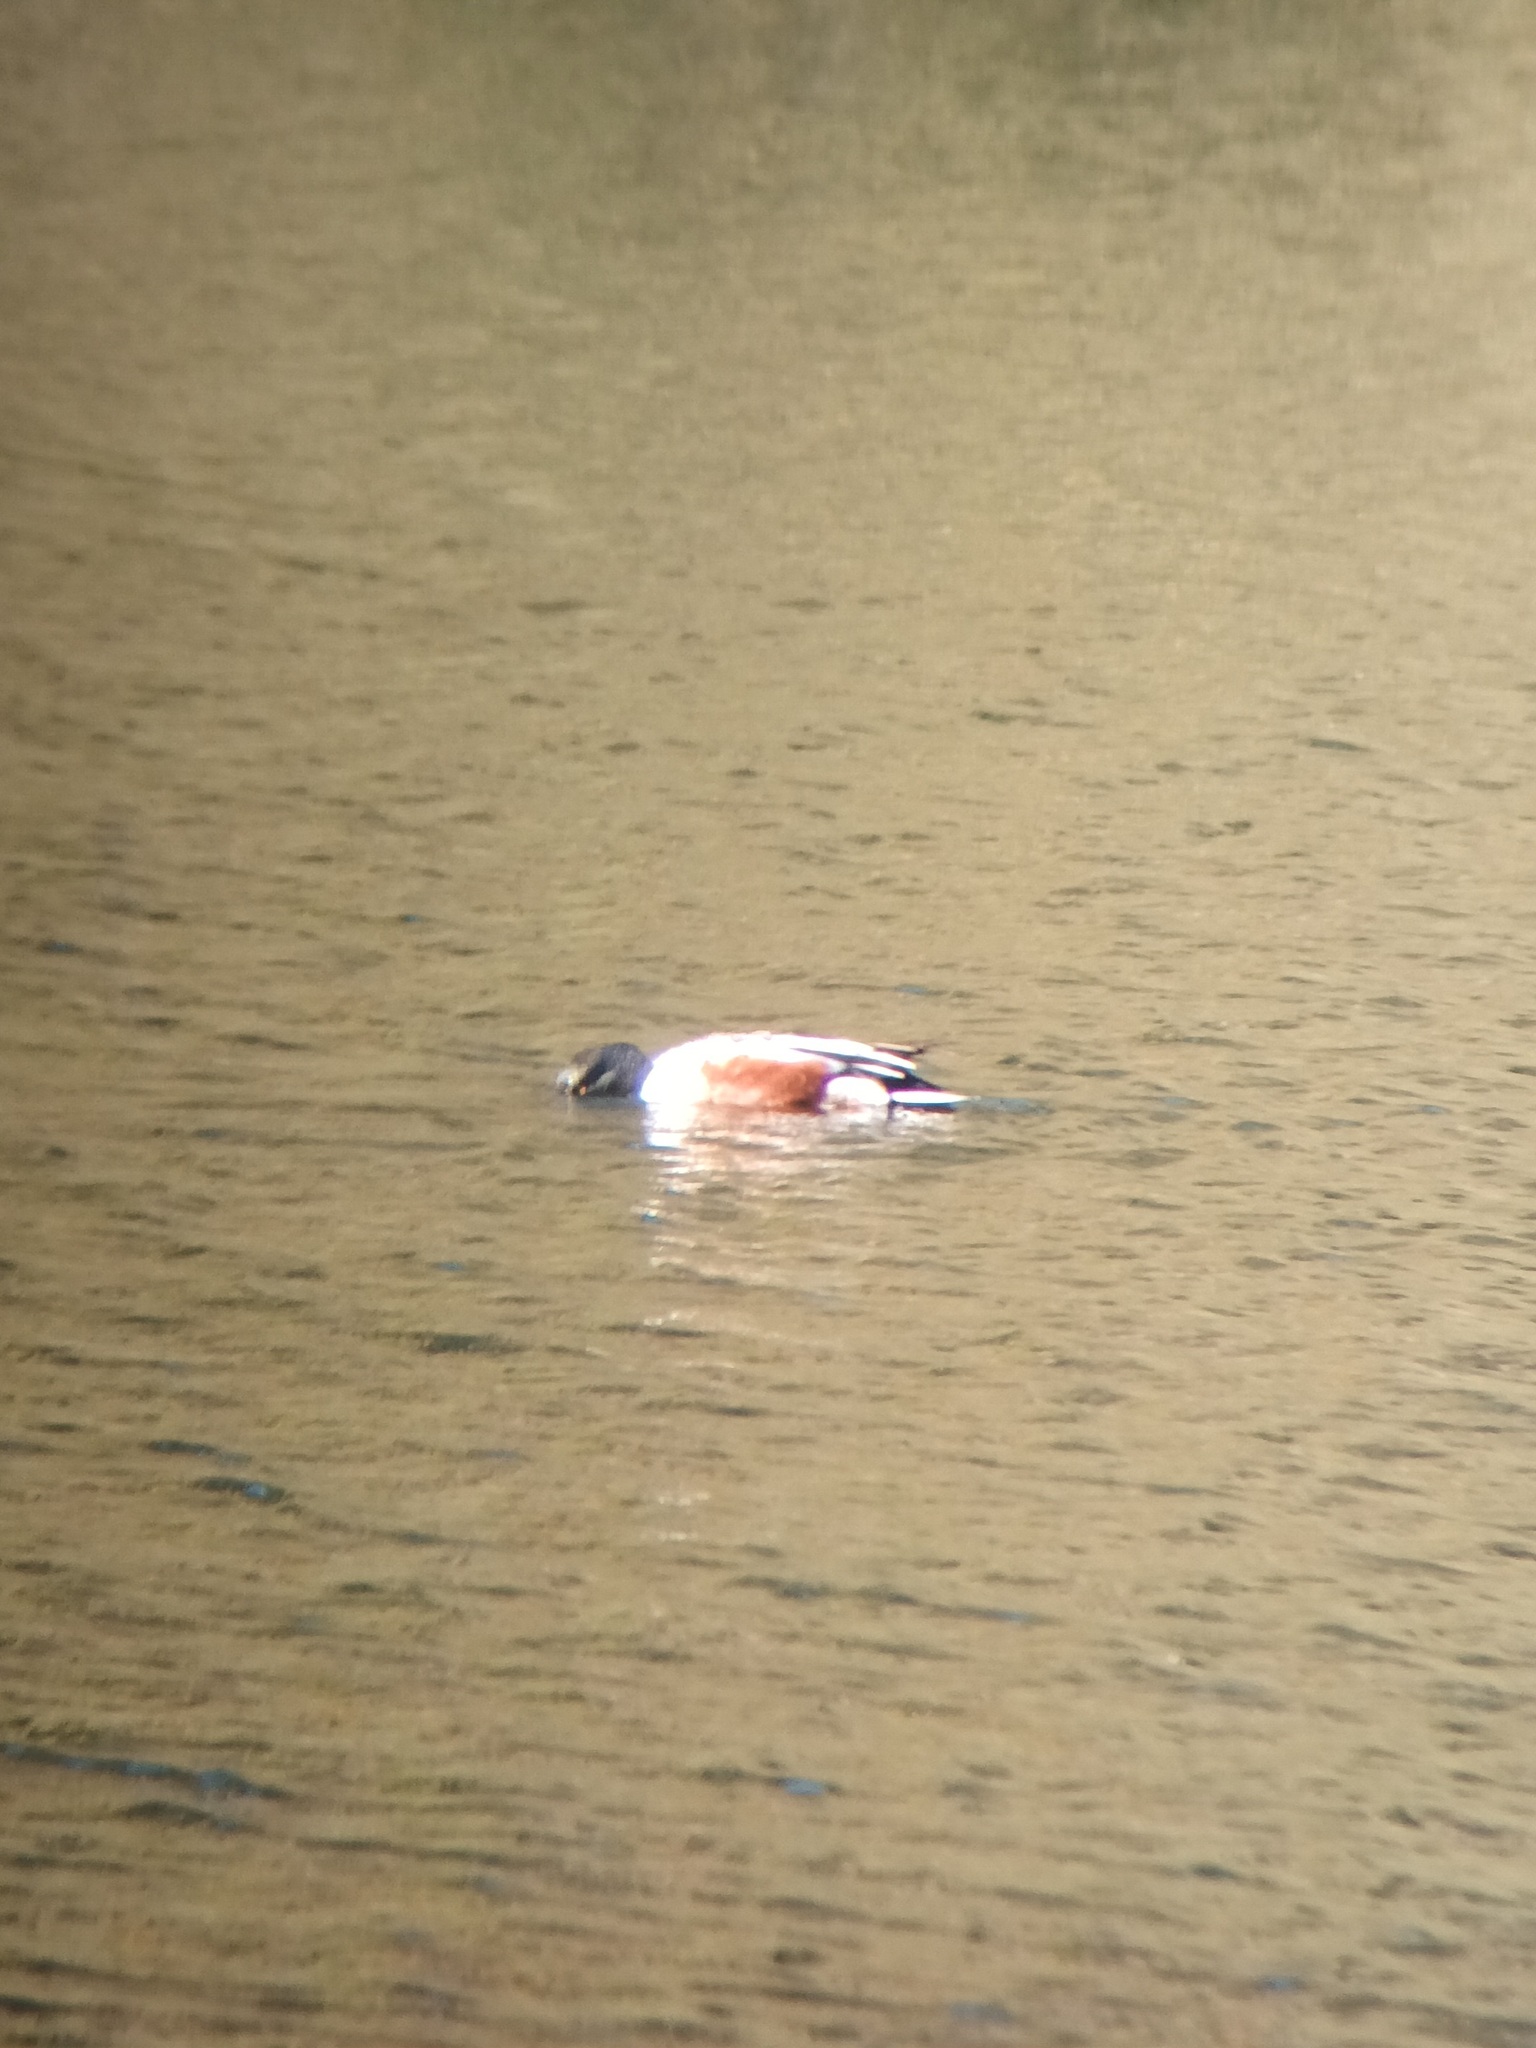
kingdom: Animalia
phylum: Chordata
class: Aves
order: Anseriformes
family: Anatidae
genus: Spatula
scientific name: Spatula clypeata
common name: Northern shoveler
